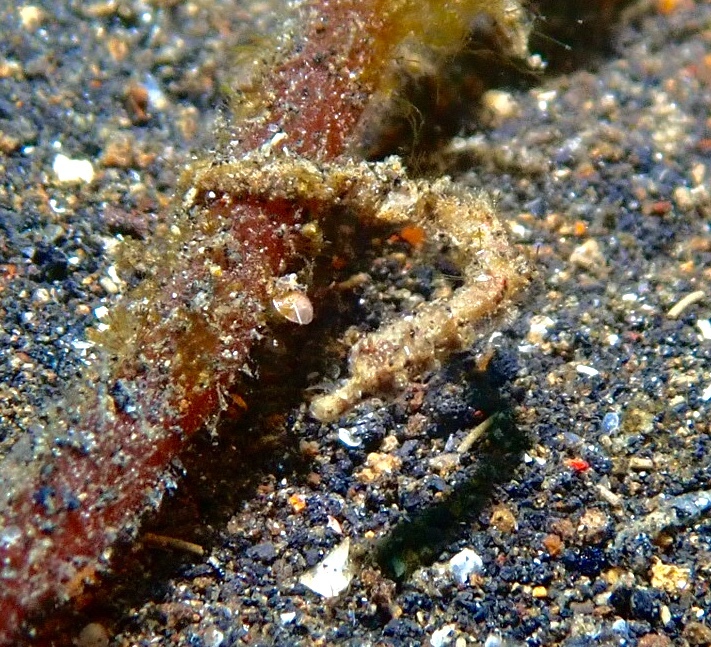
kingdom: Animalia
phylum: Chordata
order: Syngnathiformes
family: Syngnathidae
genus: Micrognathus
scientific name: Micrognathus pygmaeus
